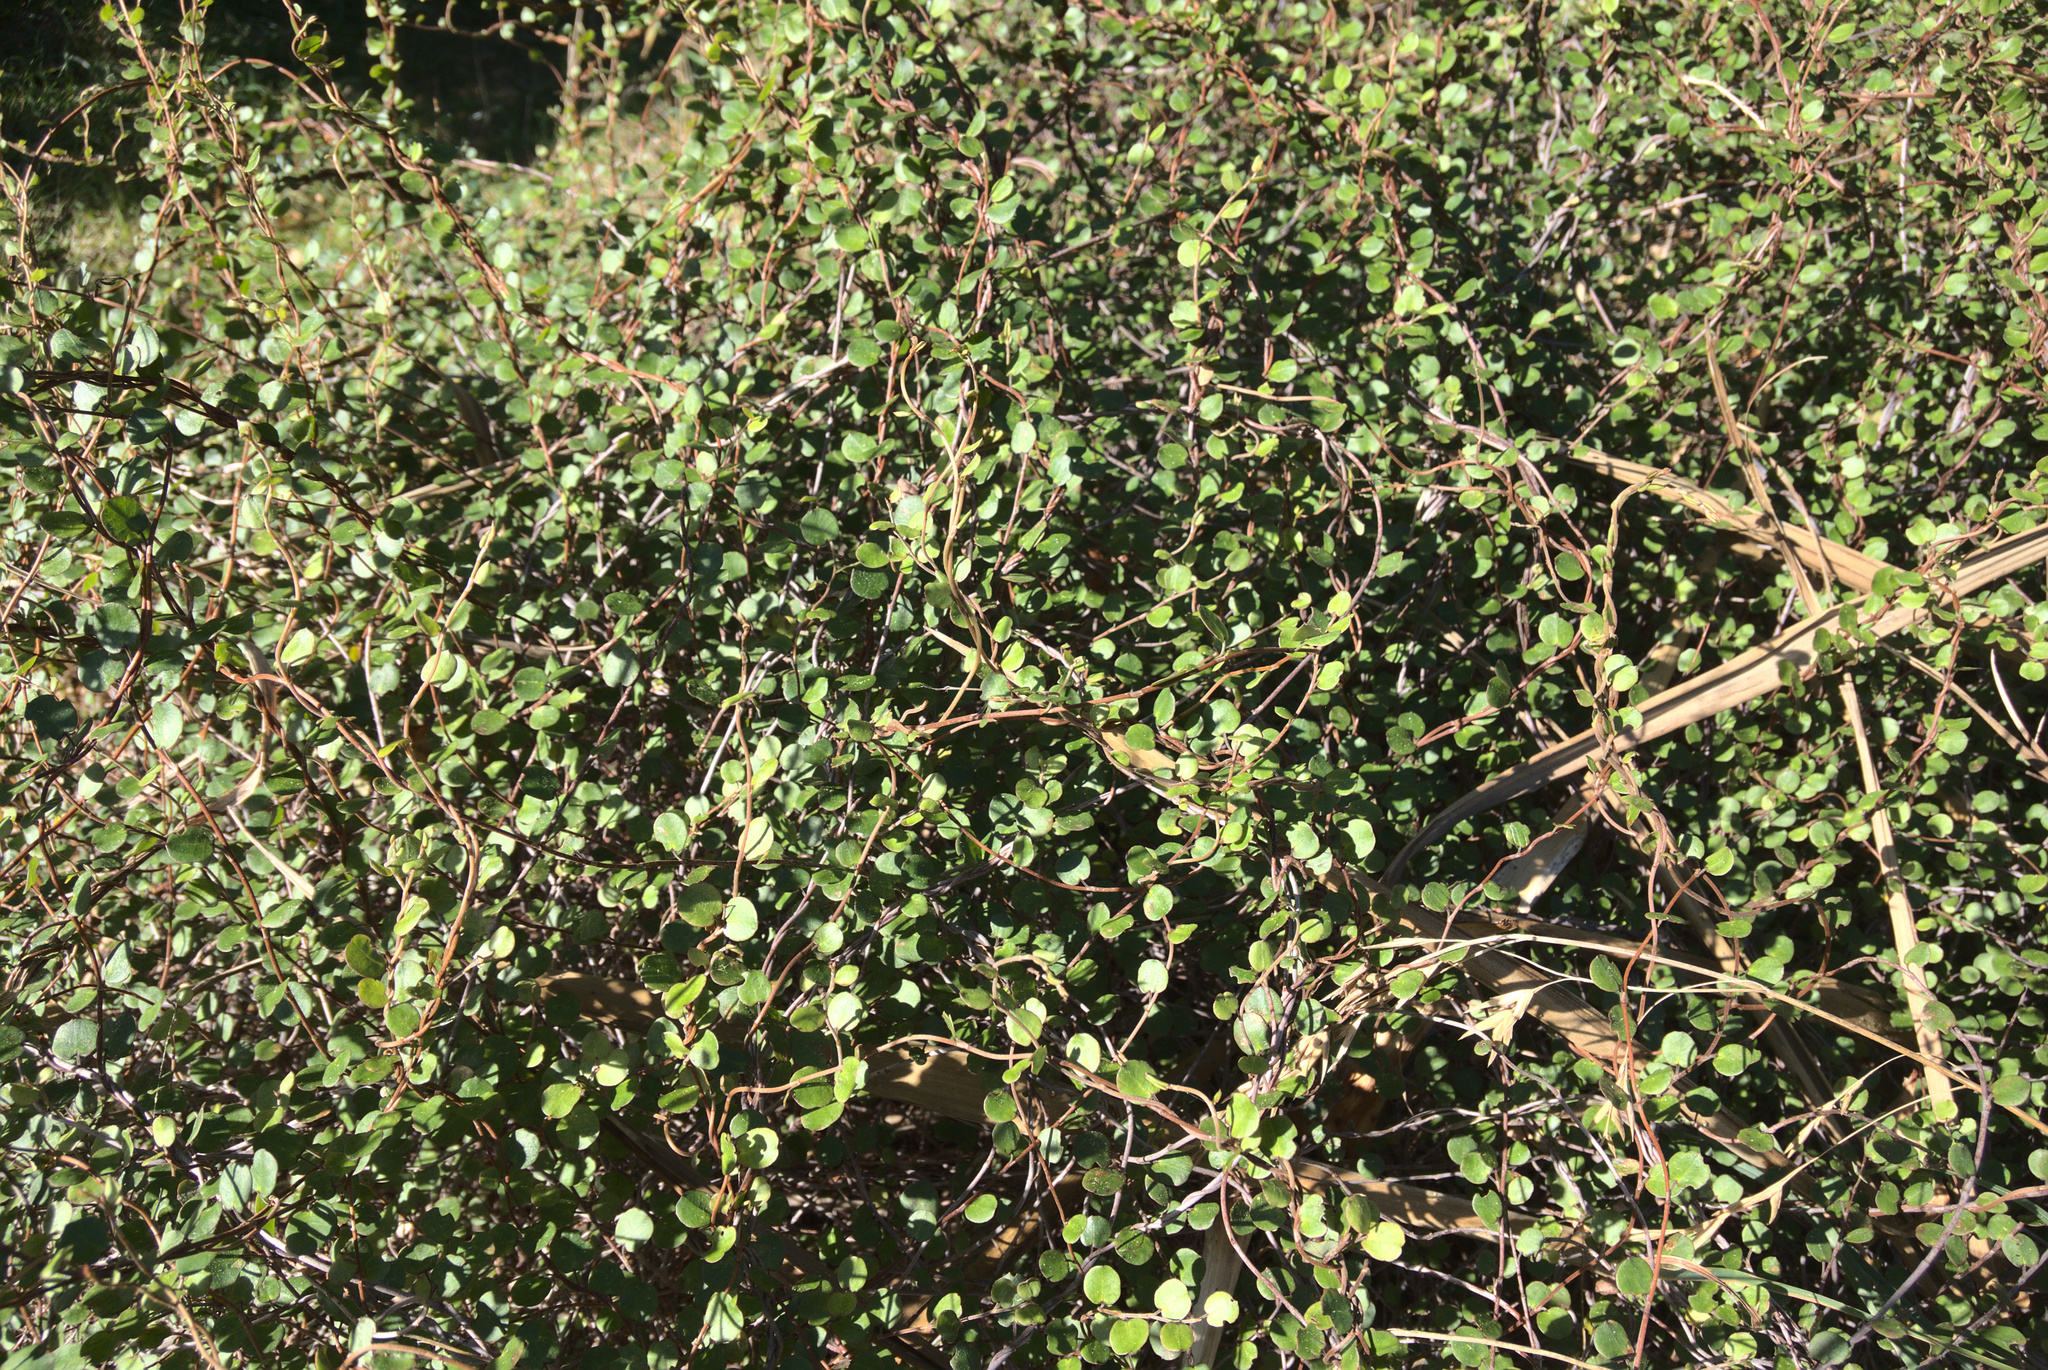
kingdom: Plantae
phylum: Tracheophyta
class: Magnoliopsida
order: Caryophyllales
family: Polygonaceae
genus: Muehlenbeckia
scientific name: Muehlenbeckia complexa
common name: Wireplant
